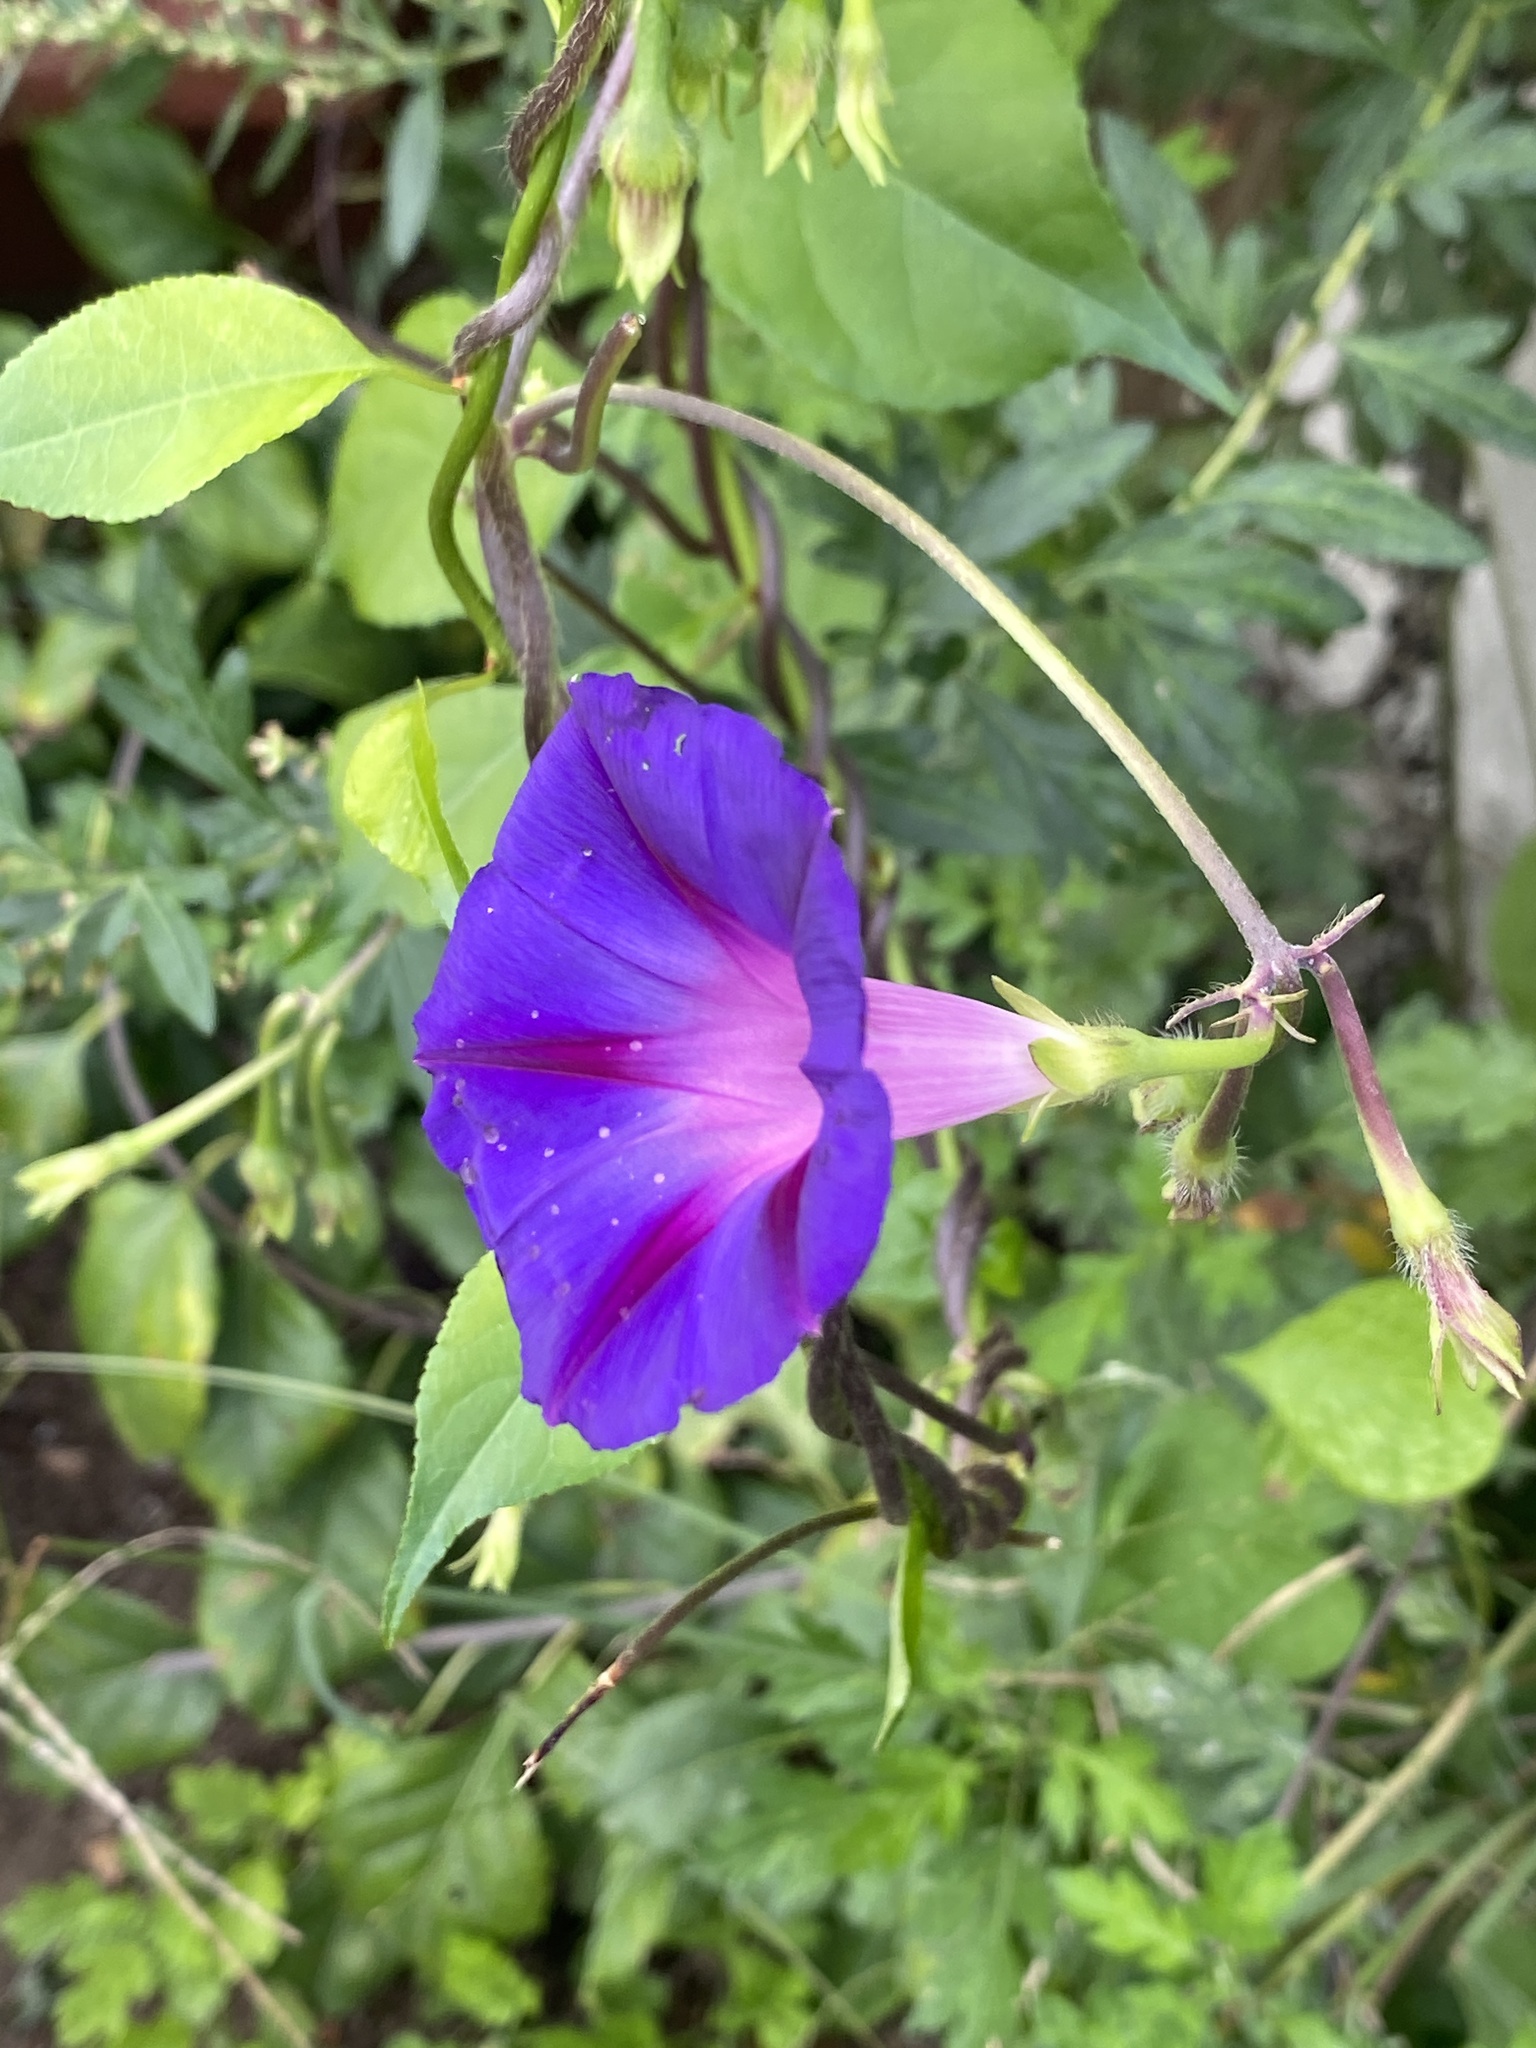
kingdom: Plantae
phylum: Tracheophyta
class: Magnoliopsida
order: Solanales
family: Convolvulaceae
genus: Ipomoea
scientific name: Ipomoea purpurea
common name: Common morning-glory
